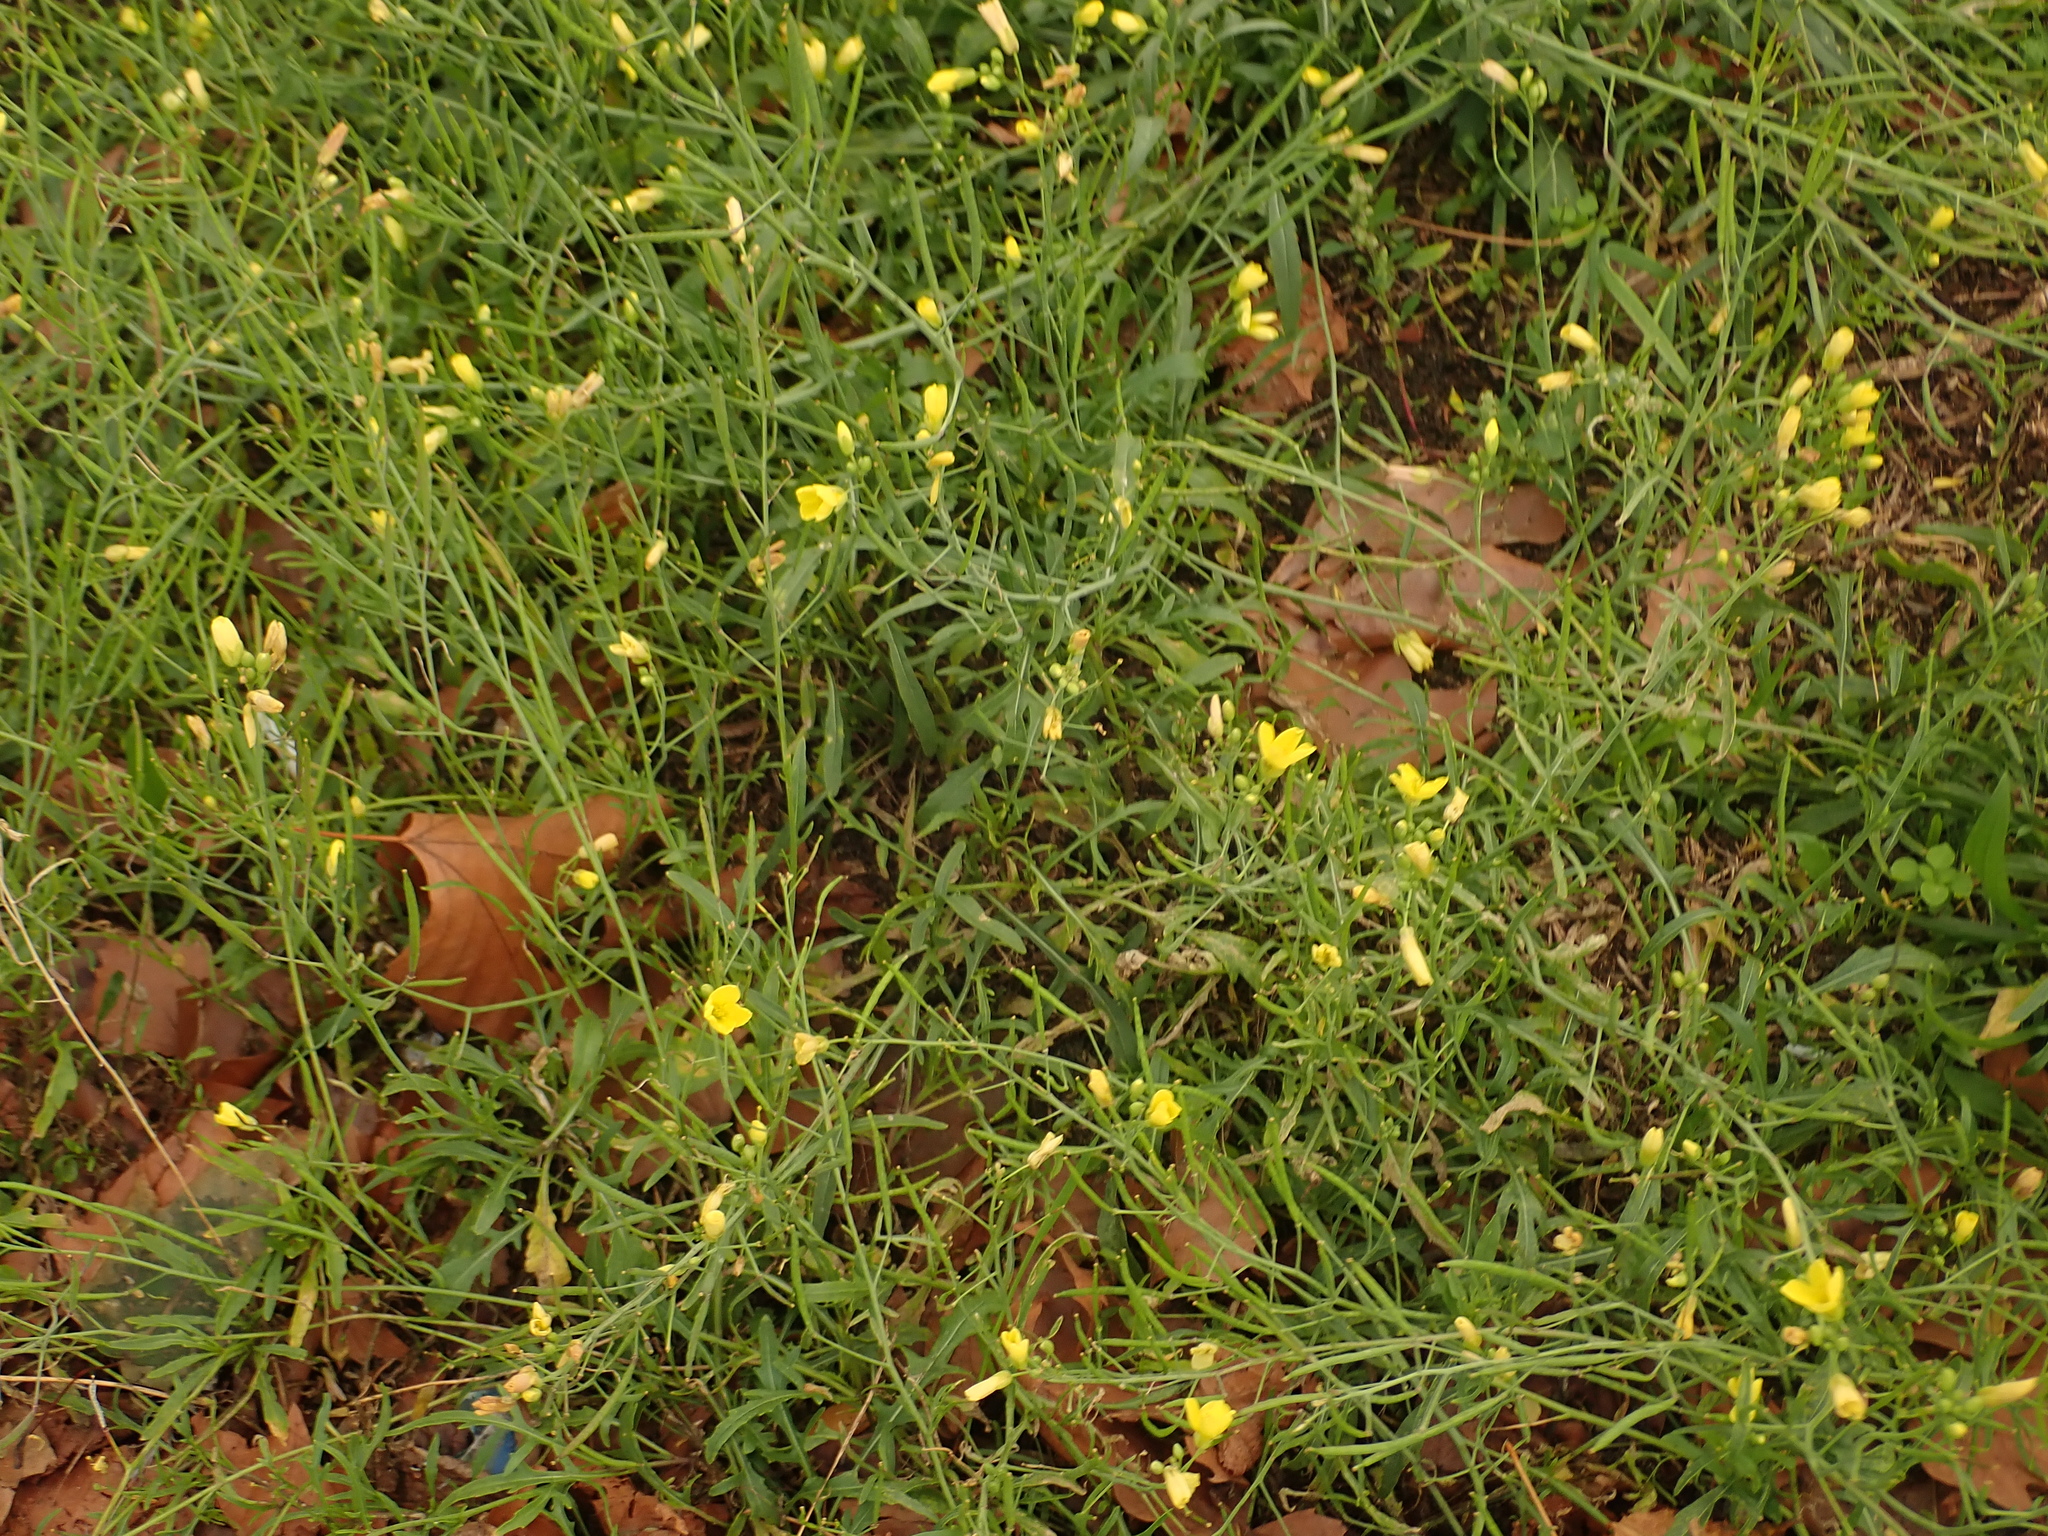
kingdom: Plantae
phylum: Tracheophyta
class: Magnoliopsida
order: Brassicales
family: Brassicaceae
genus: Diplotaxis
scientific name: Diplotaxis tenuifolia
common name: Perennial wall-rocket
